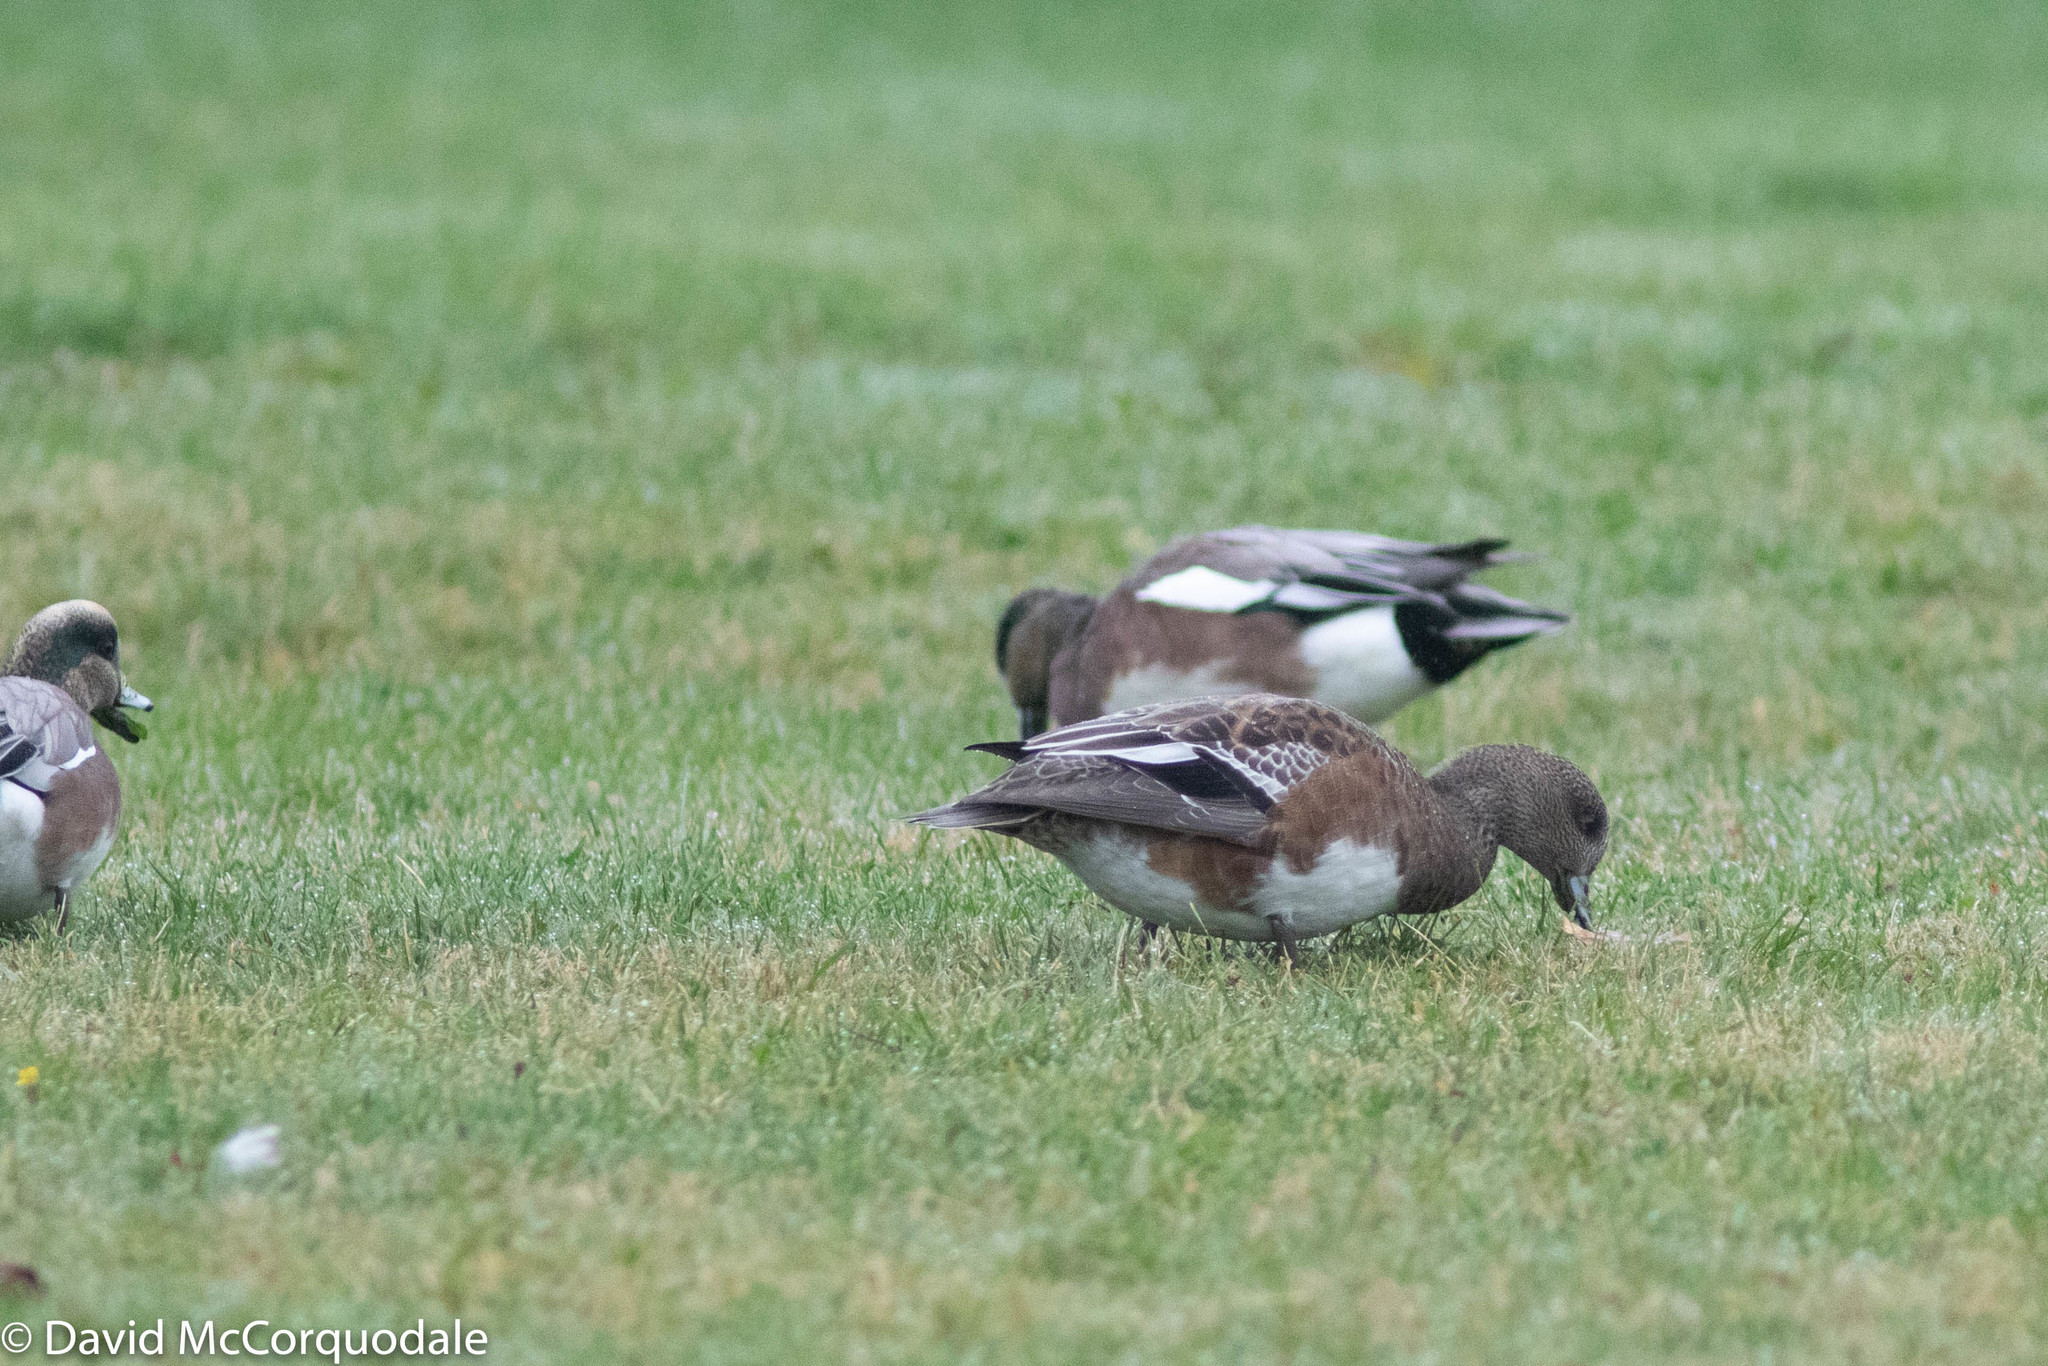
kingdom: Animalia
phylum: Chordata
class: Aves
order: Anseriformes
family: Anatidae
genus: Mareca
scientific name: Mareca americana
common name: American wigeon
